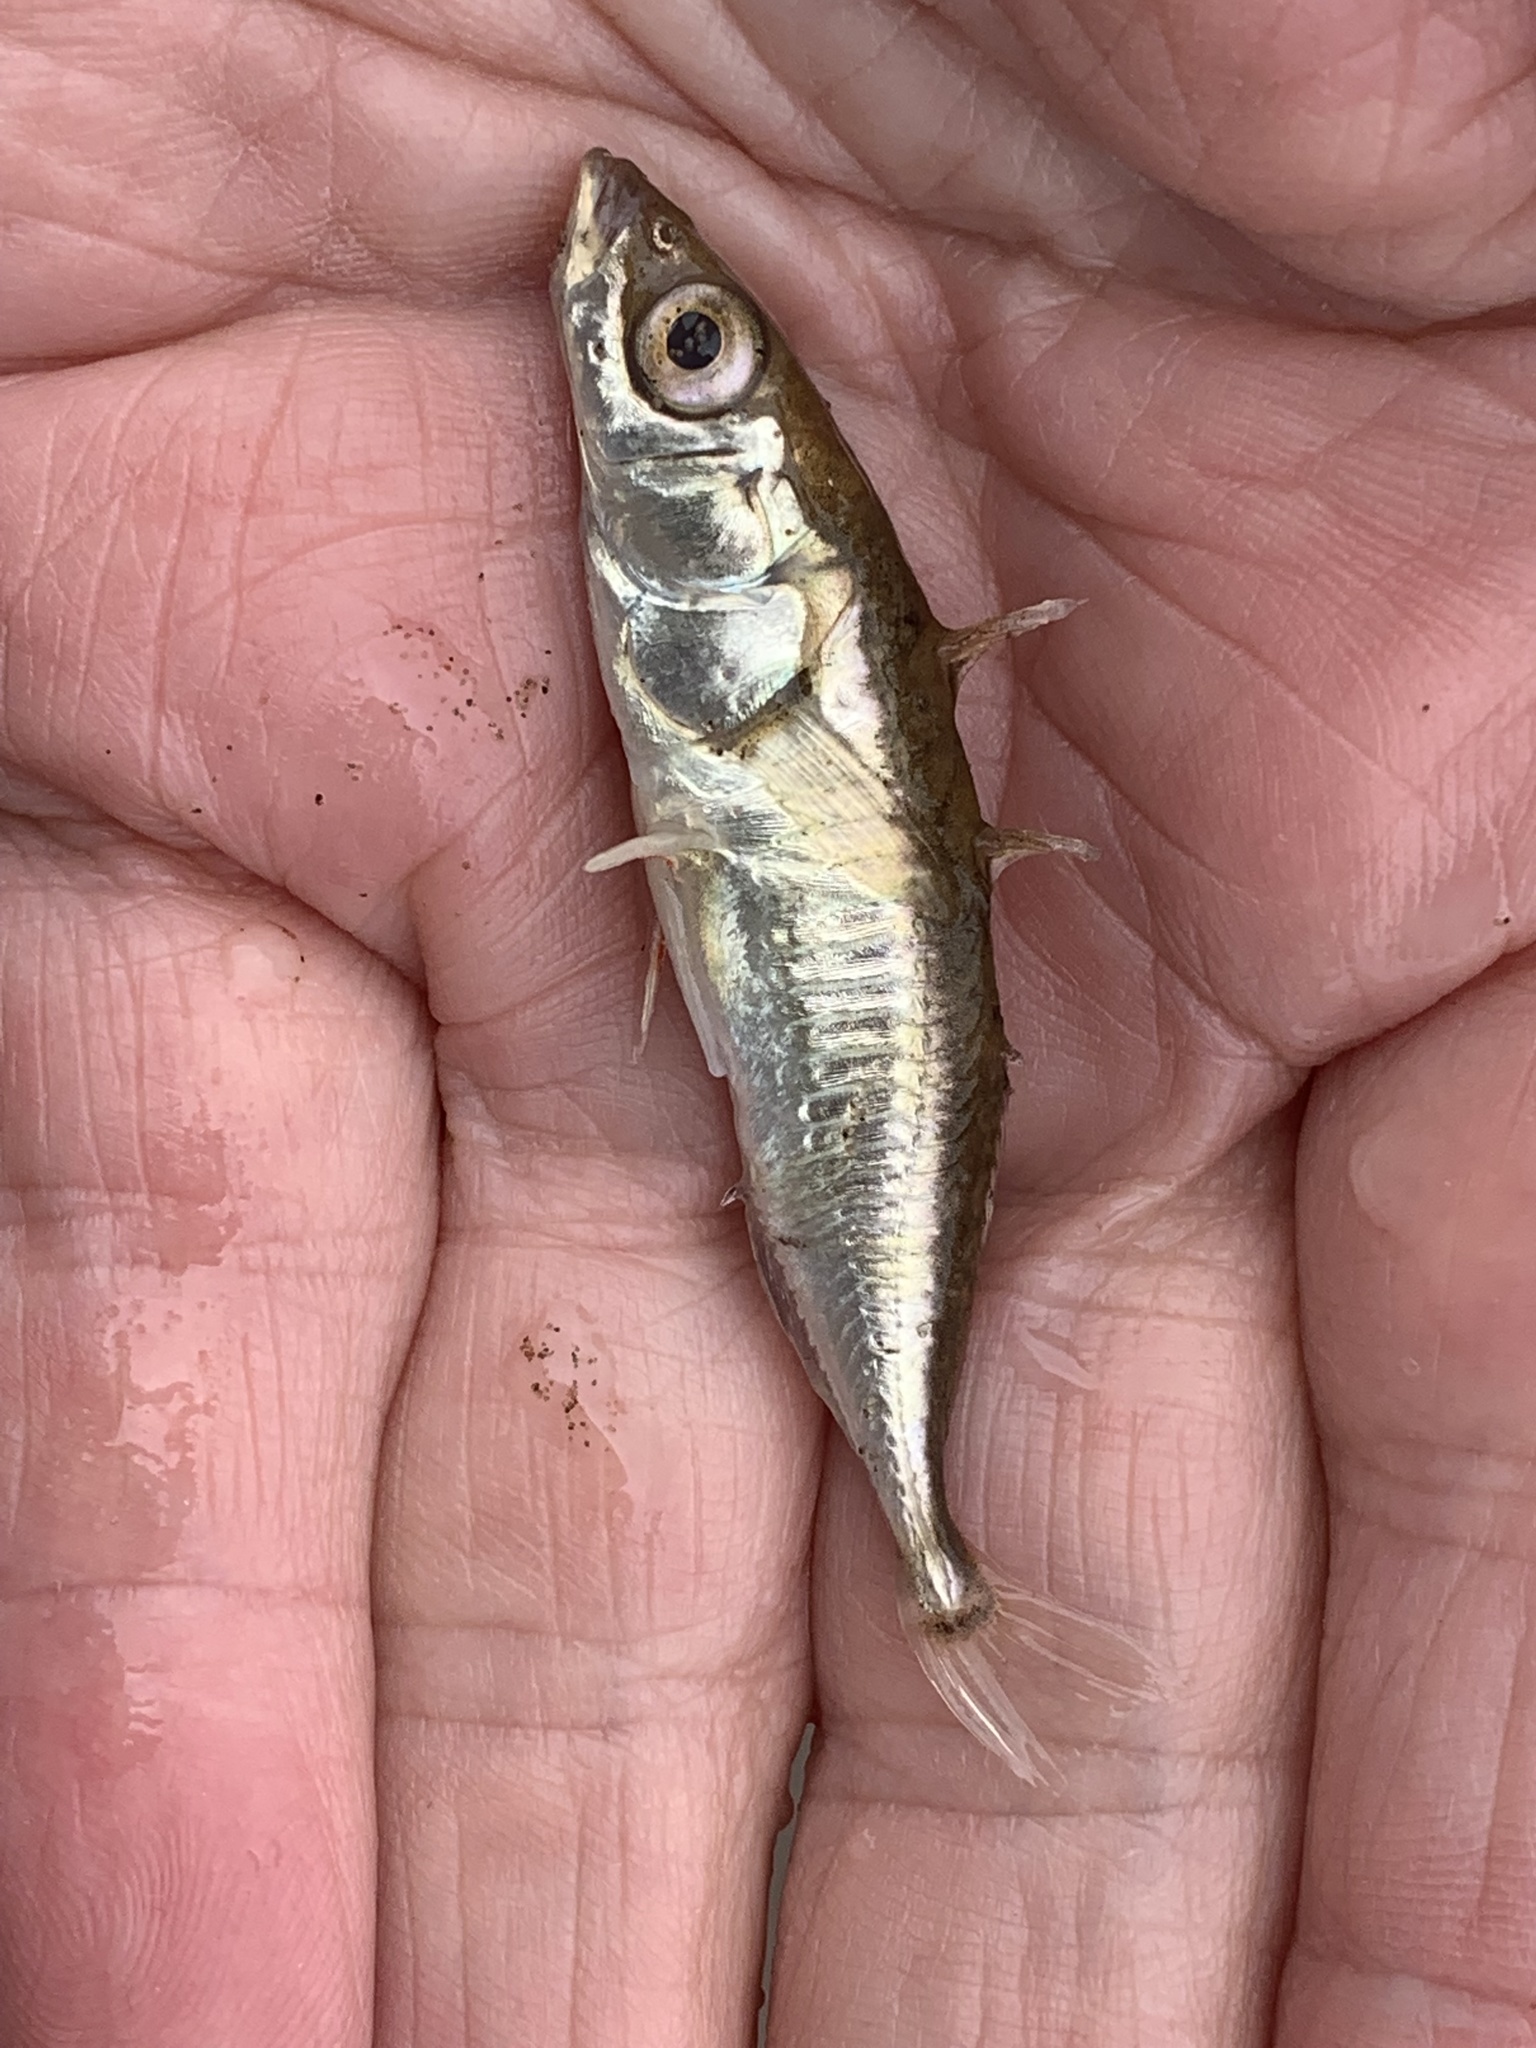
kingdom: Animalia
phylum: Chordata
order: Gasterosteiformes
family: Gasterosteidae
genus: Gasterosteus
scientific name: Gasterosteus aculeatus
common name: Three-spined stickleback
